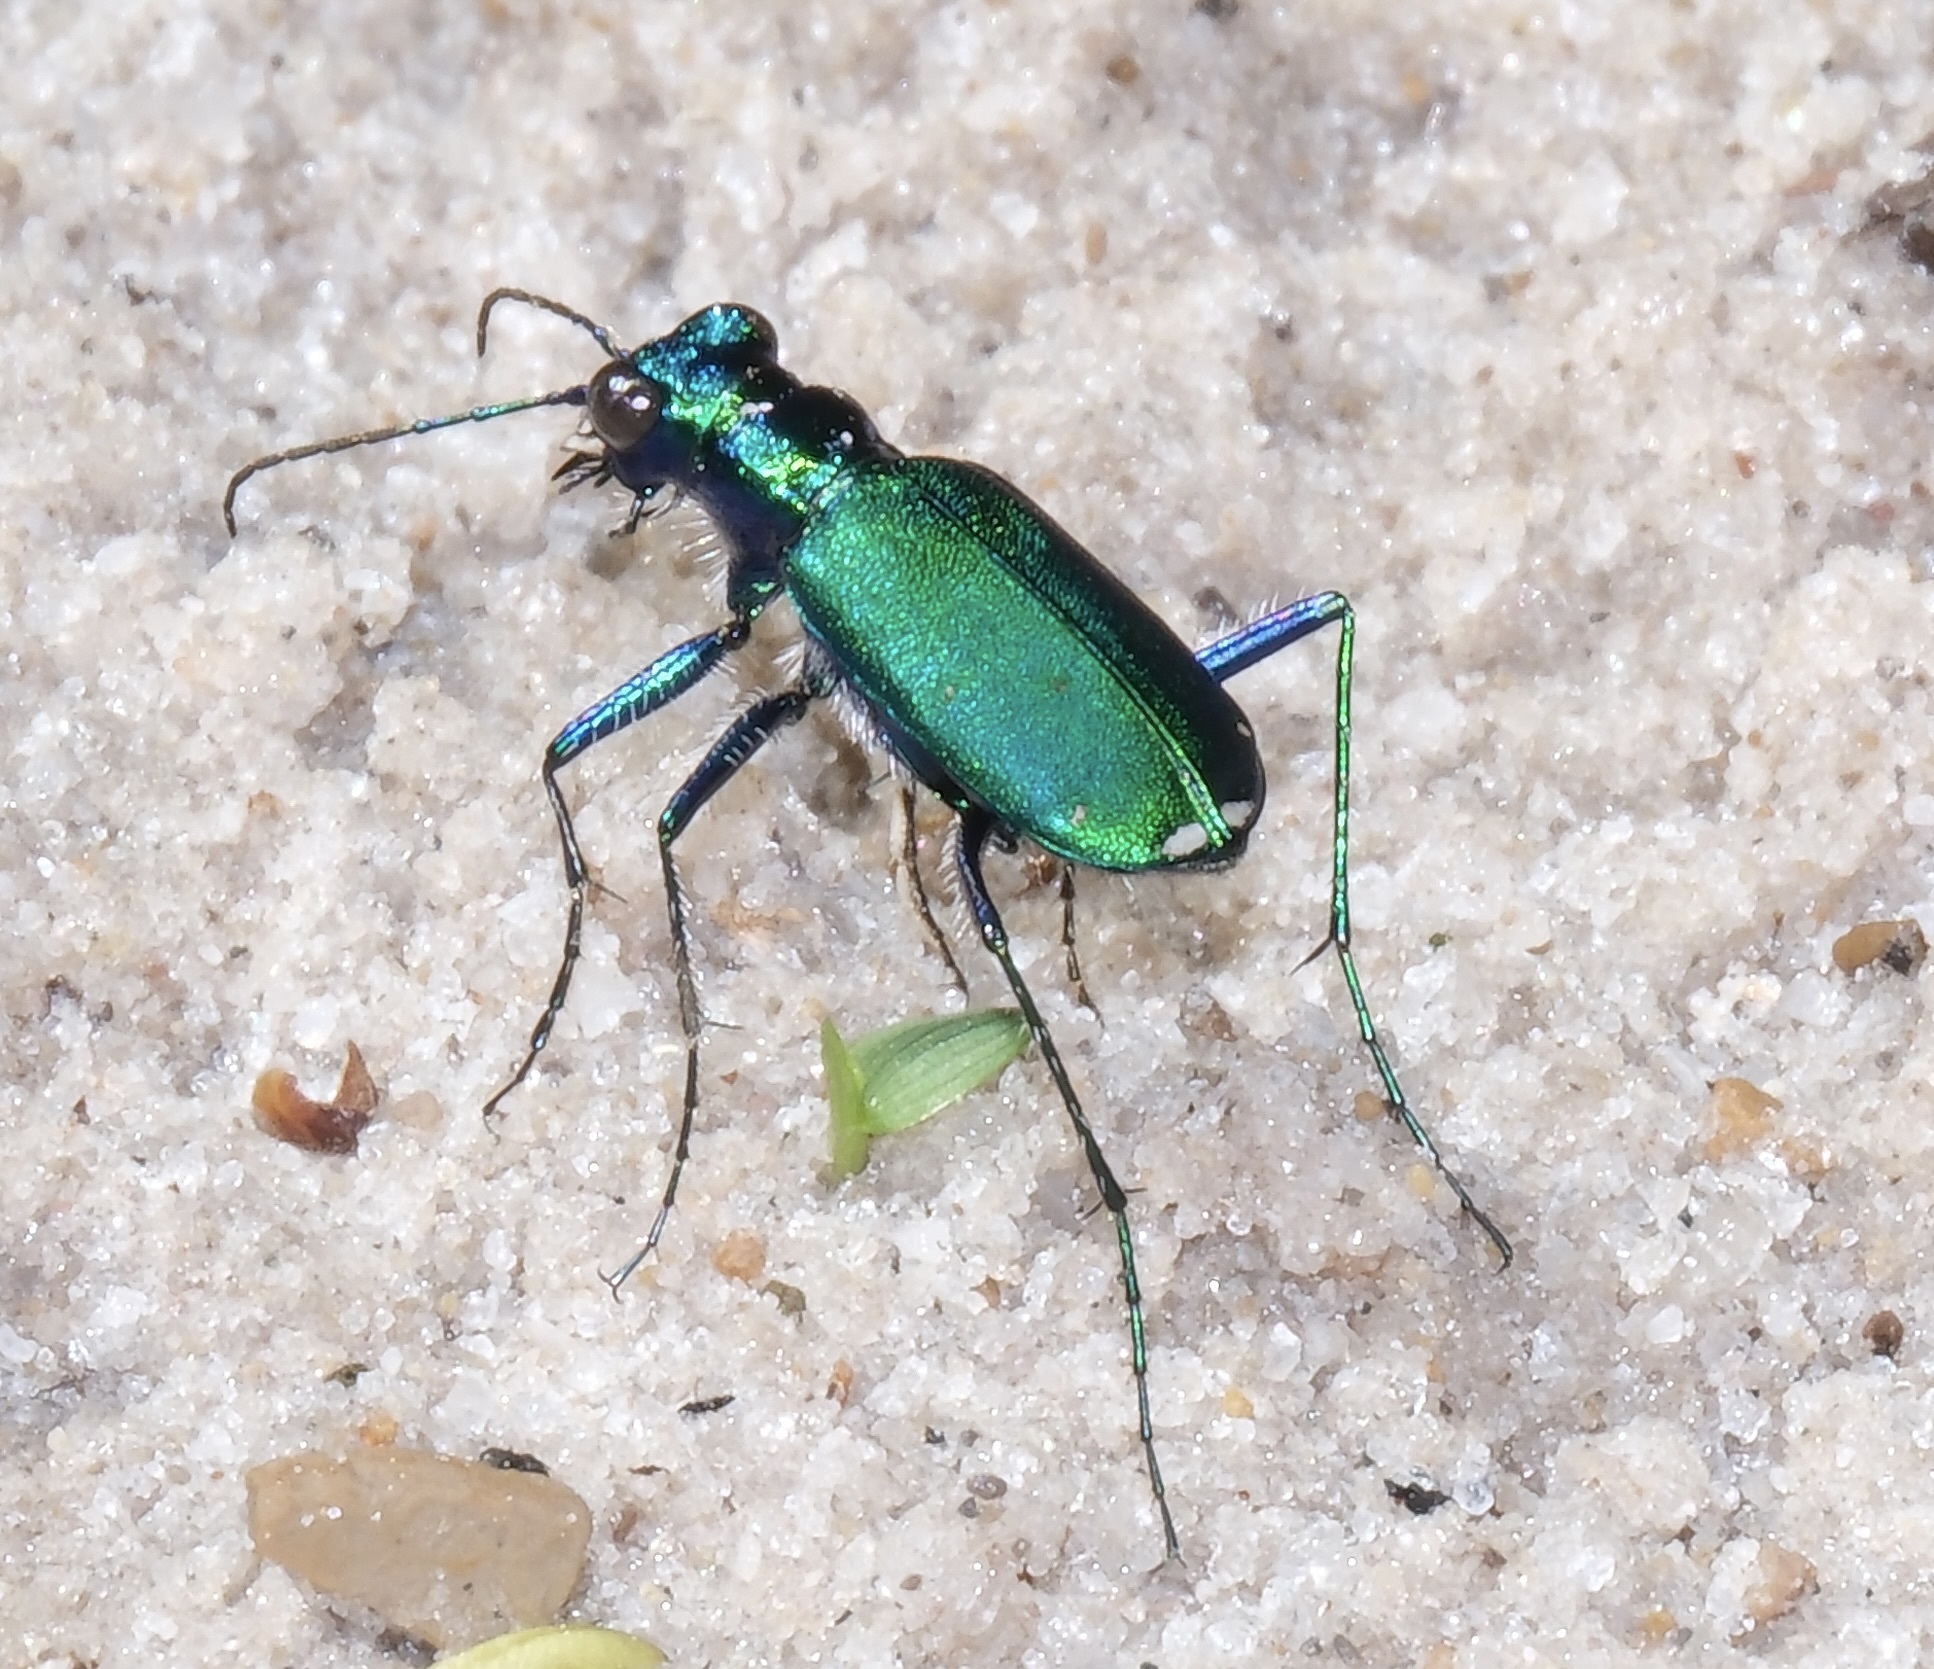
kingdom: Animalia
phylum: Arthropoda
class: Insecta
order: Coleoptera
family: Carabidae
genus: Cicindela
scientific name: Cicindela sexguttata
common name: Six-spotted tiger beetle
